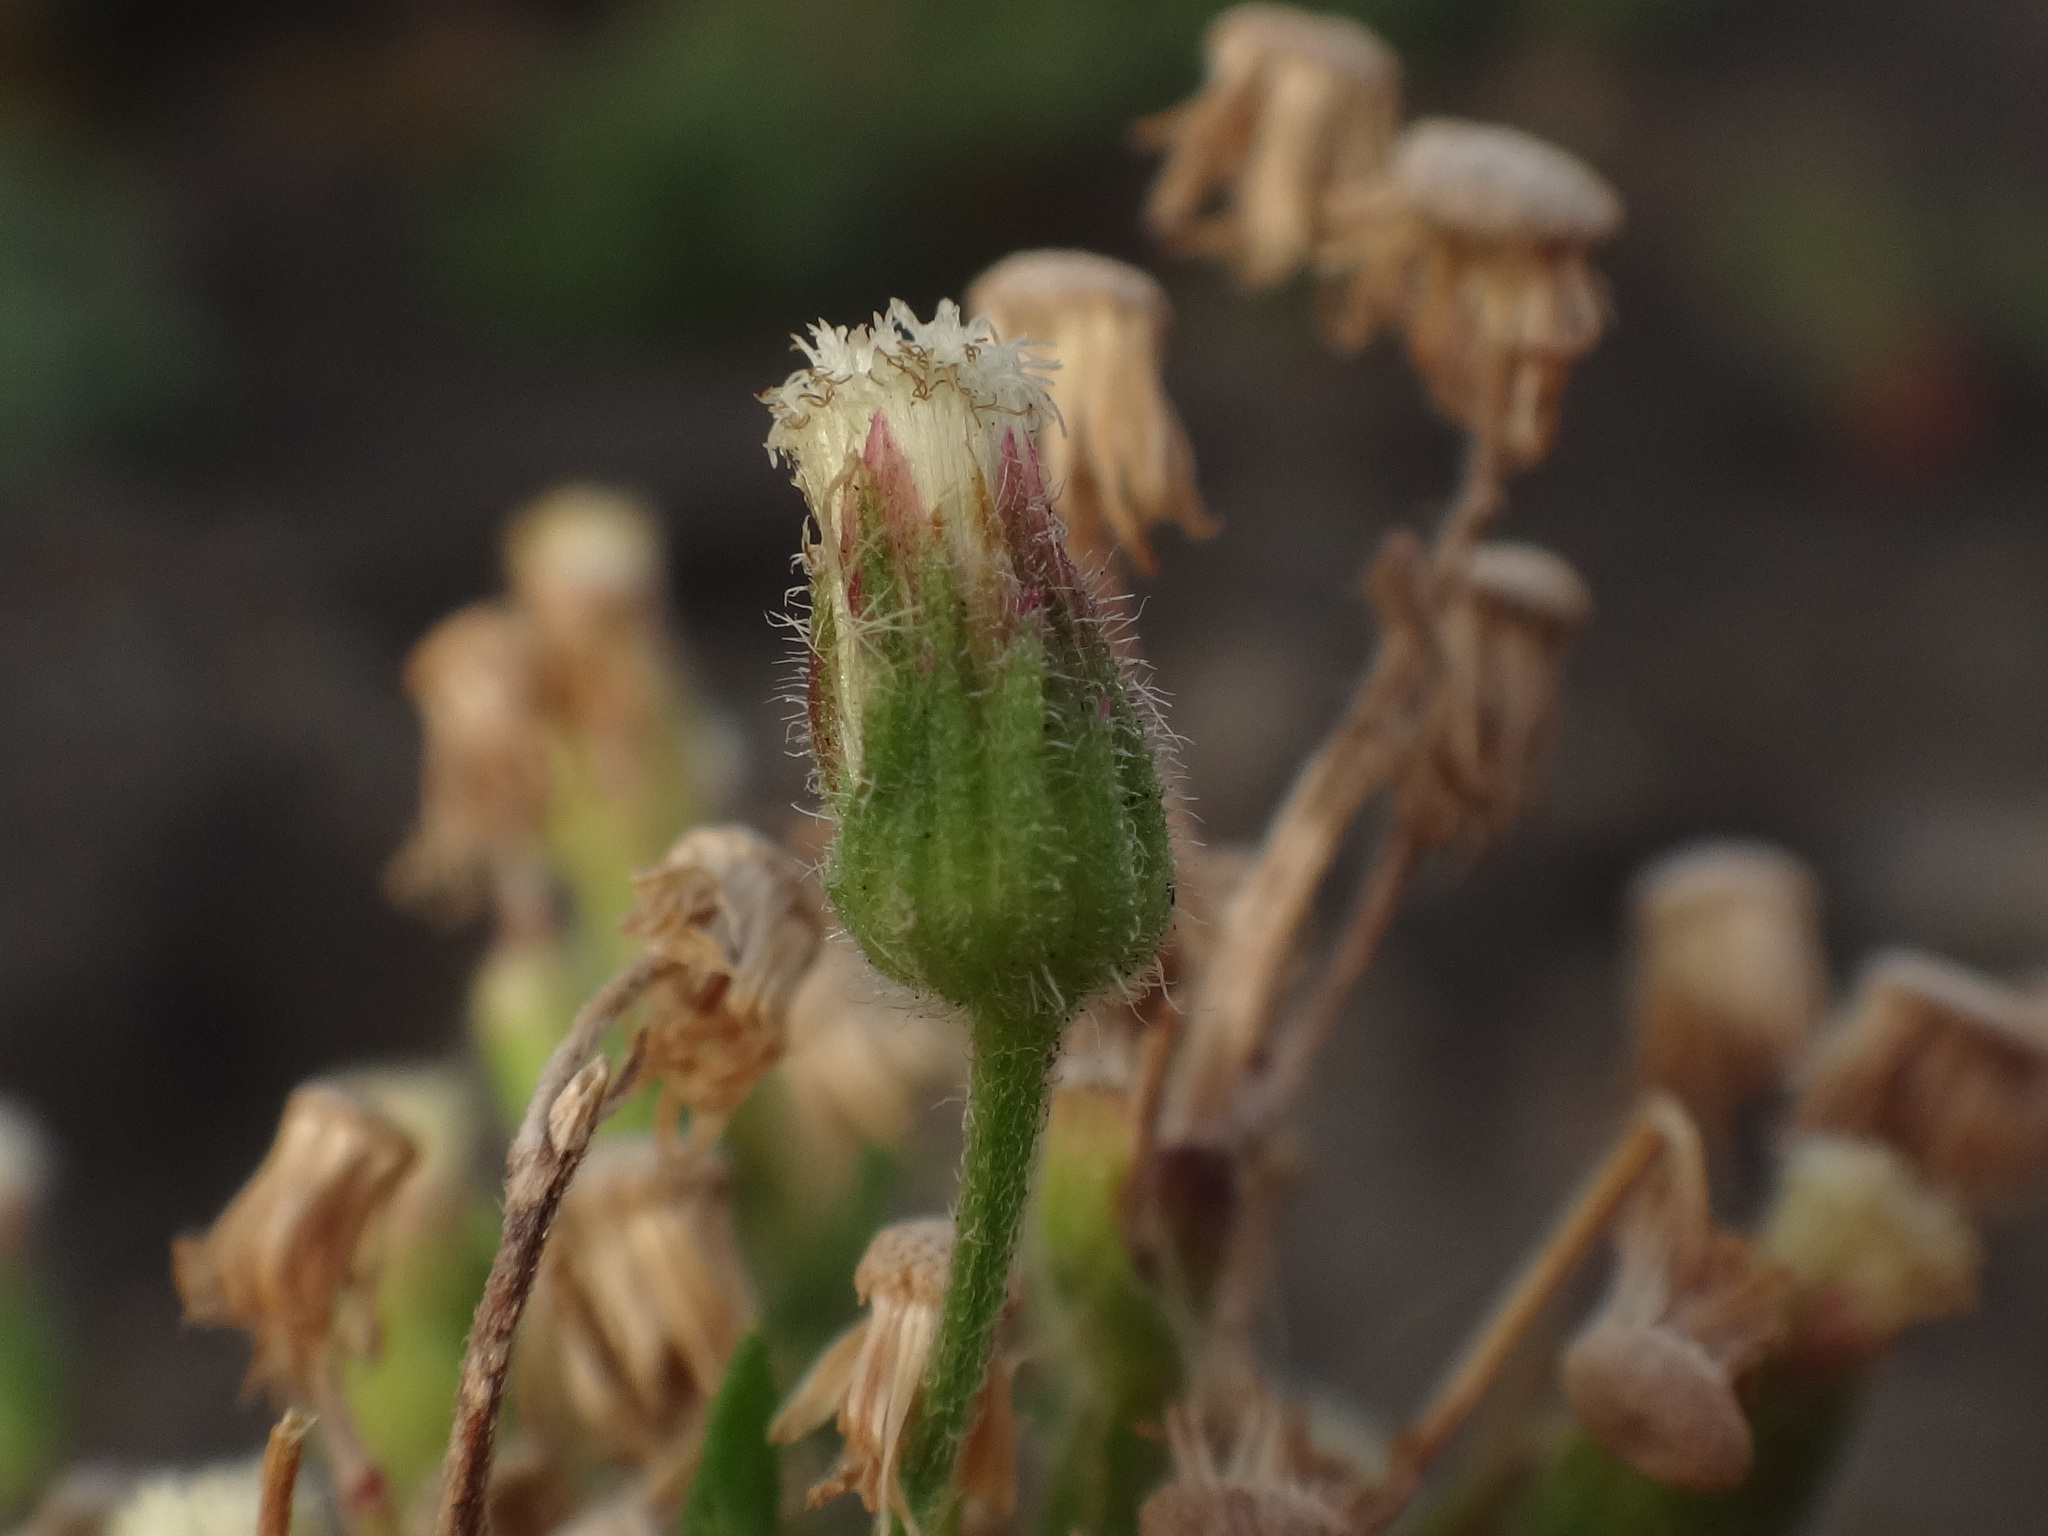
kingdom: Plantae
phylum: Tracheophyta
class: Magnoliopsida
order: Asterales
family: Asteraceae
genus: Erigeron
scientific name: Erigeron sumatrensis
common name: Daisy
